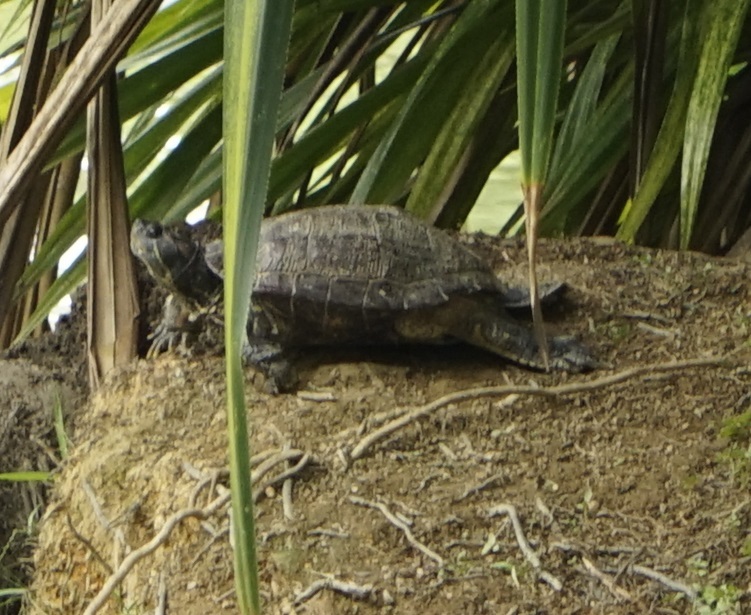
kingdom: Animalia
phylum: Chordata
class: Testudines
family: Emydidae
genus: Trachemys
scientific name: Trachemys scripta
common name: Slider
